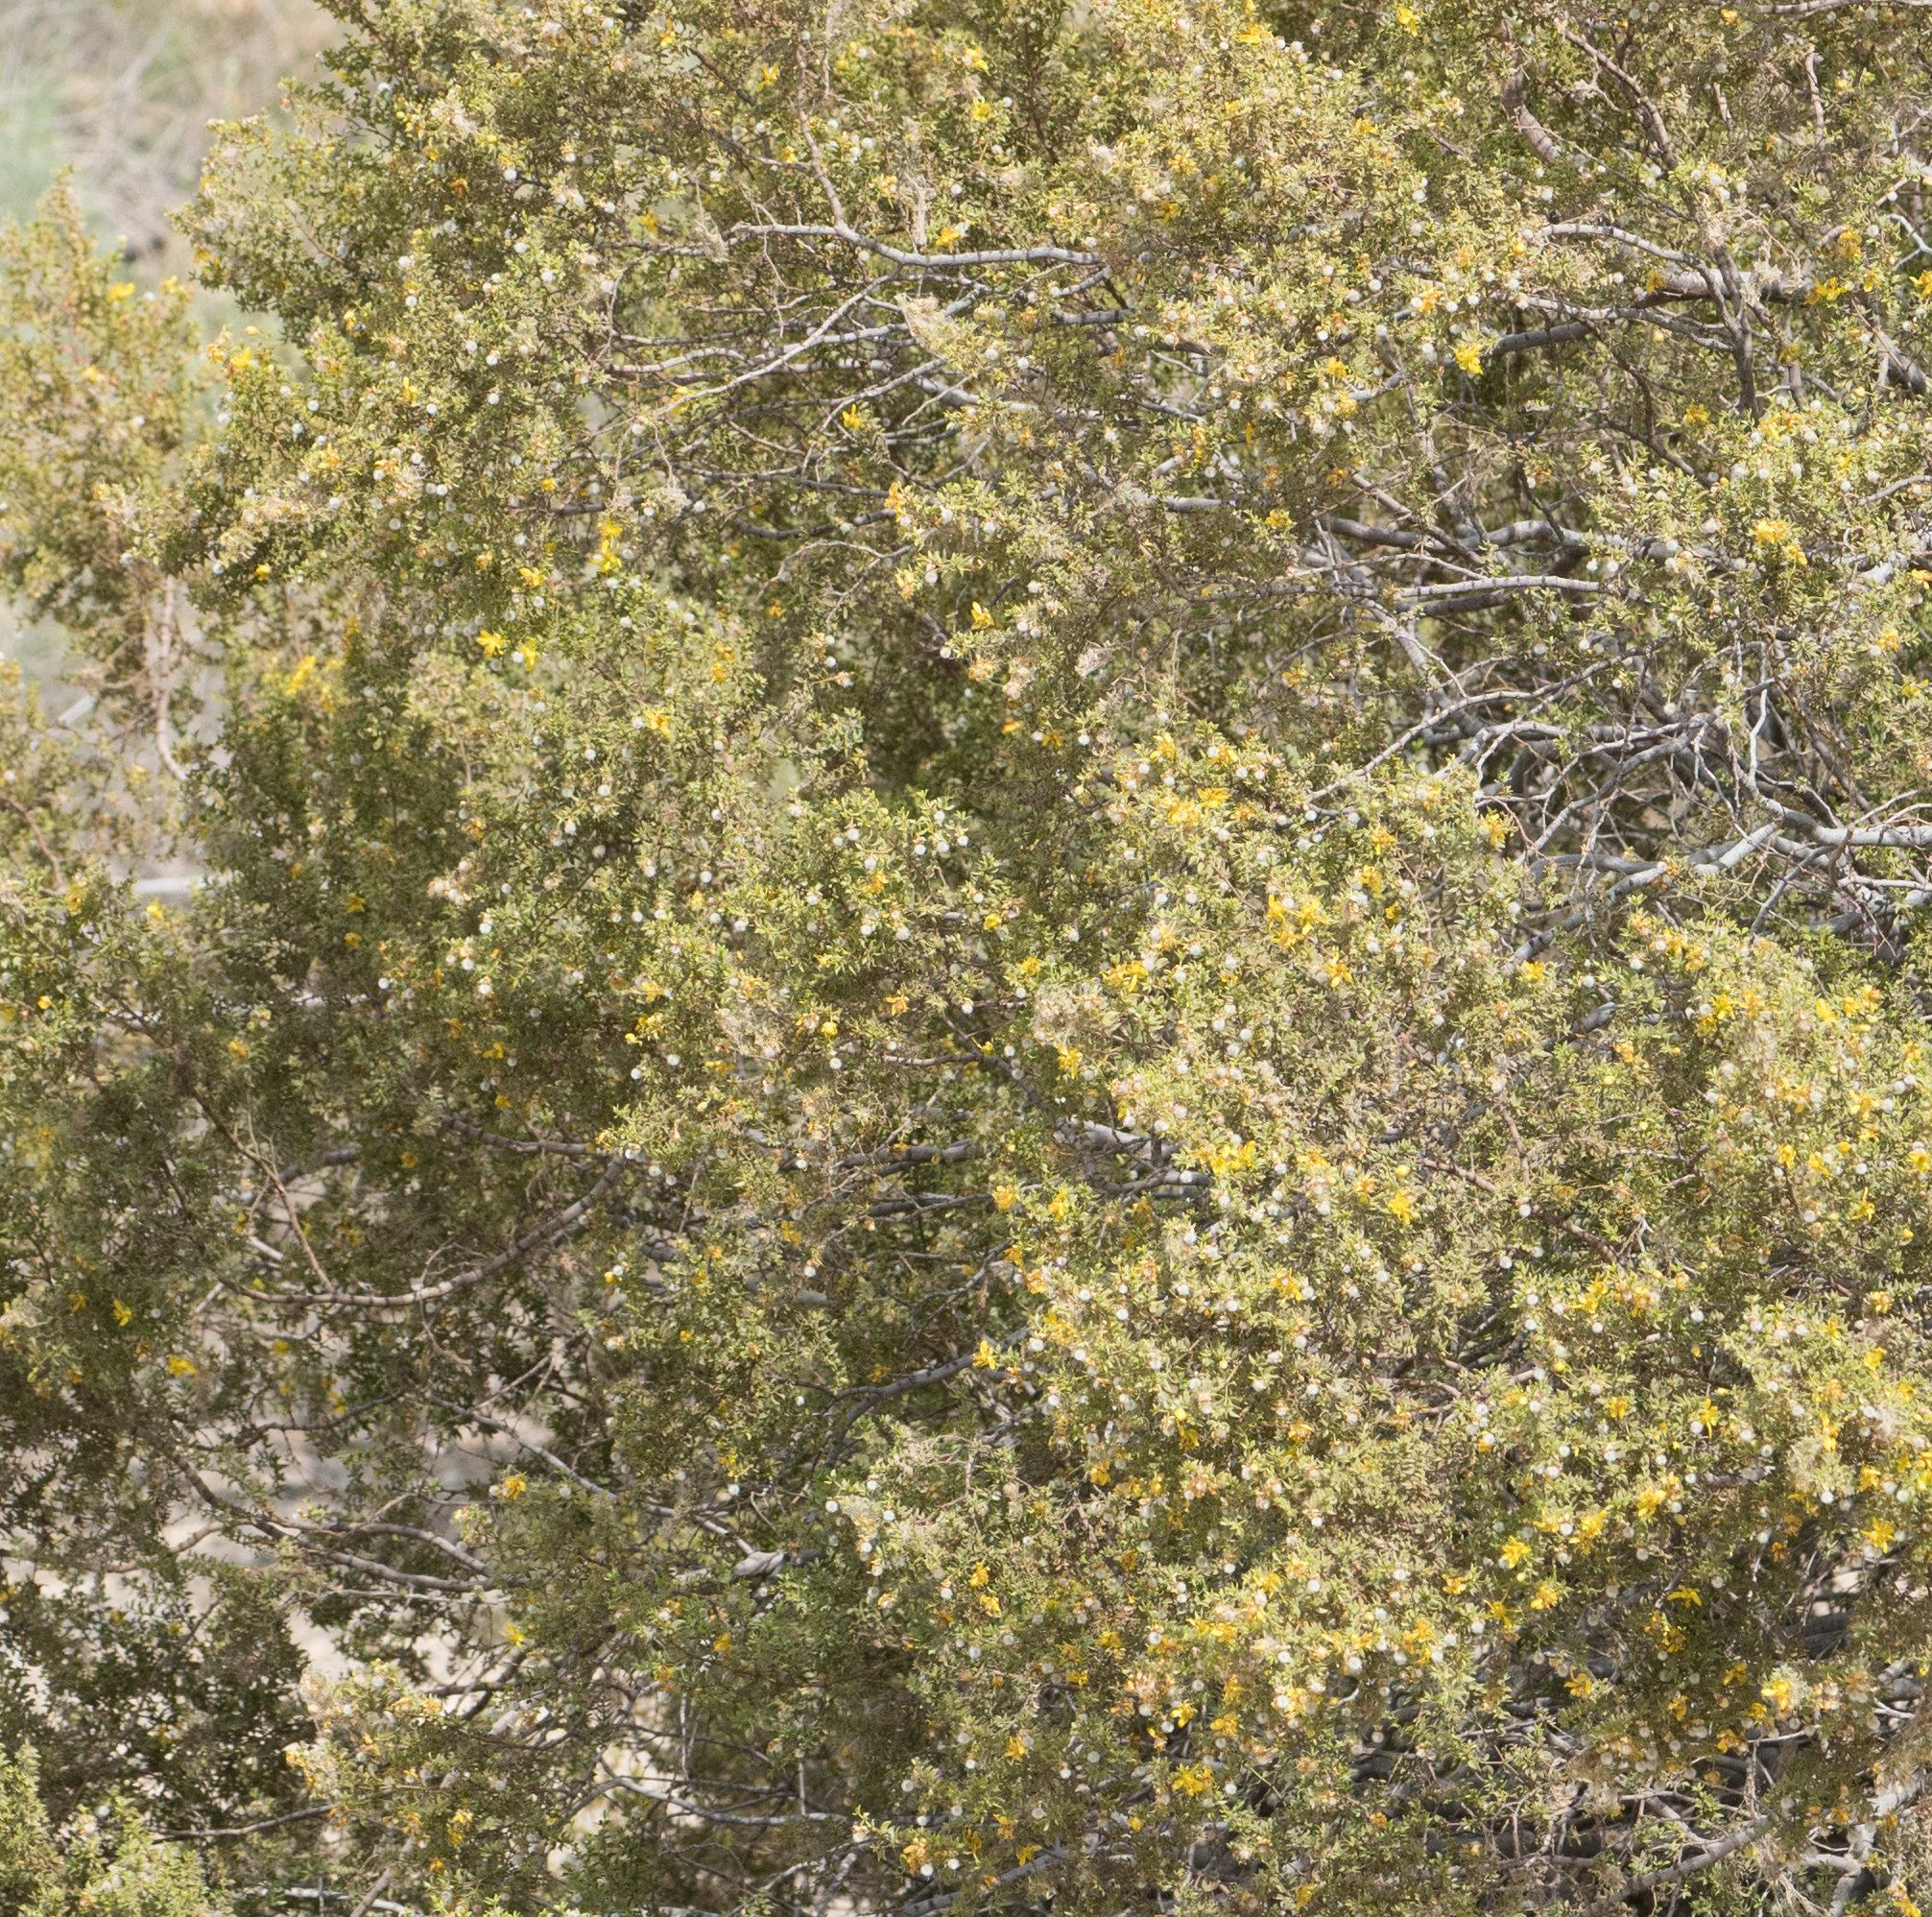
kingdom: Plantae
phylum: Tracheophyta
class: Magnoliopsida
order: Zygophyllales
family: Zygophyllaceae
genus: Larrea
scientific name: Larrea tridentata
